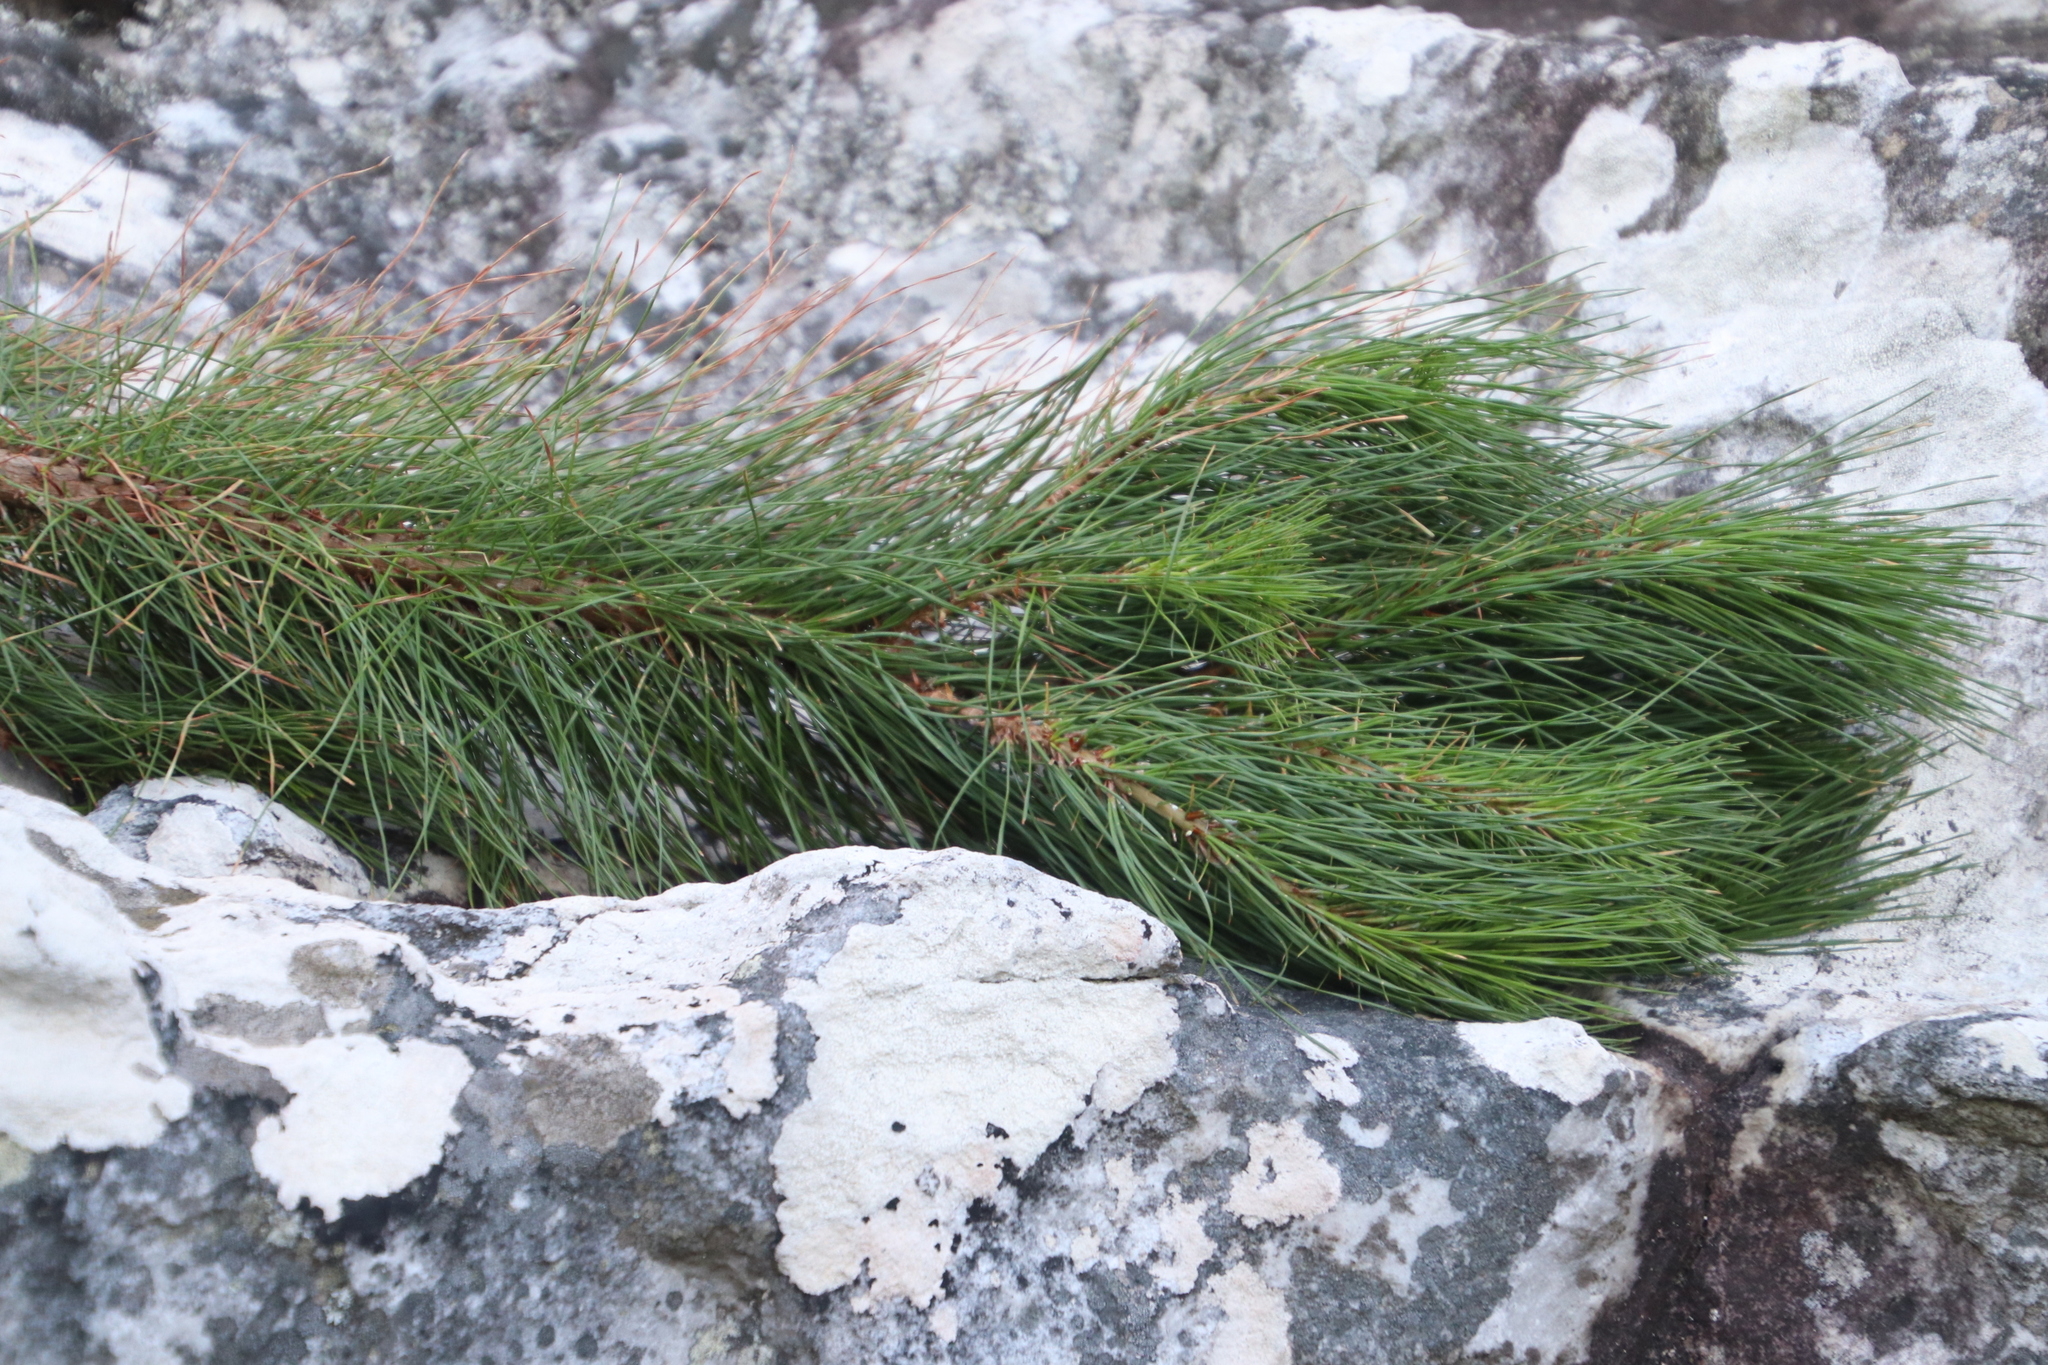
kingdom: Plantae
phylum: Tracheophyta
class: Pinopsida
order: Pinales
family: Pinaceae
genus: Pinus
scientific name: Pinus radiata
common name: Monterey pine
